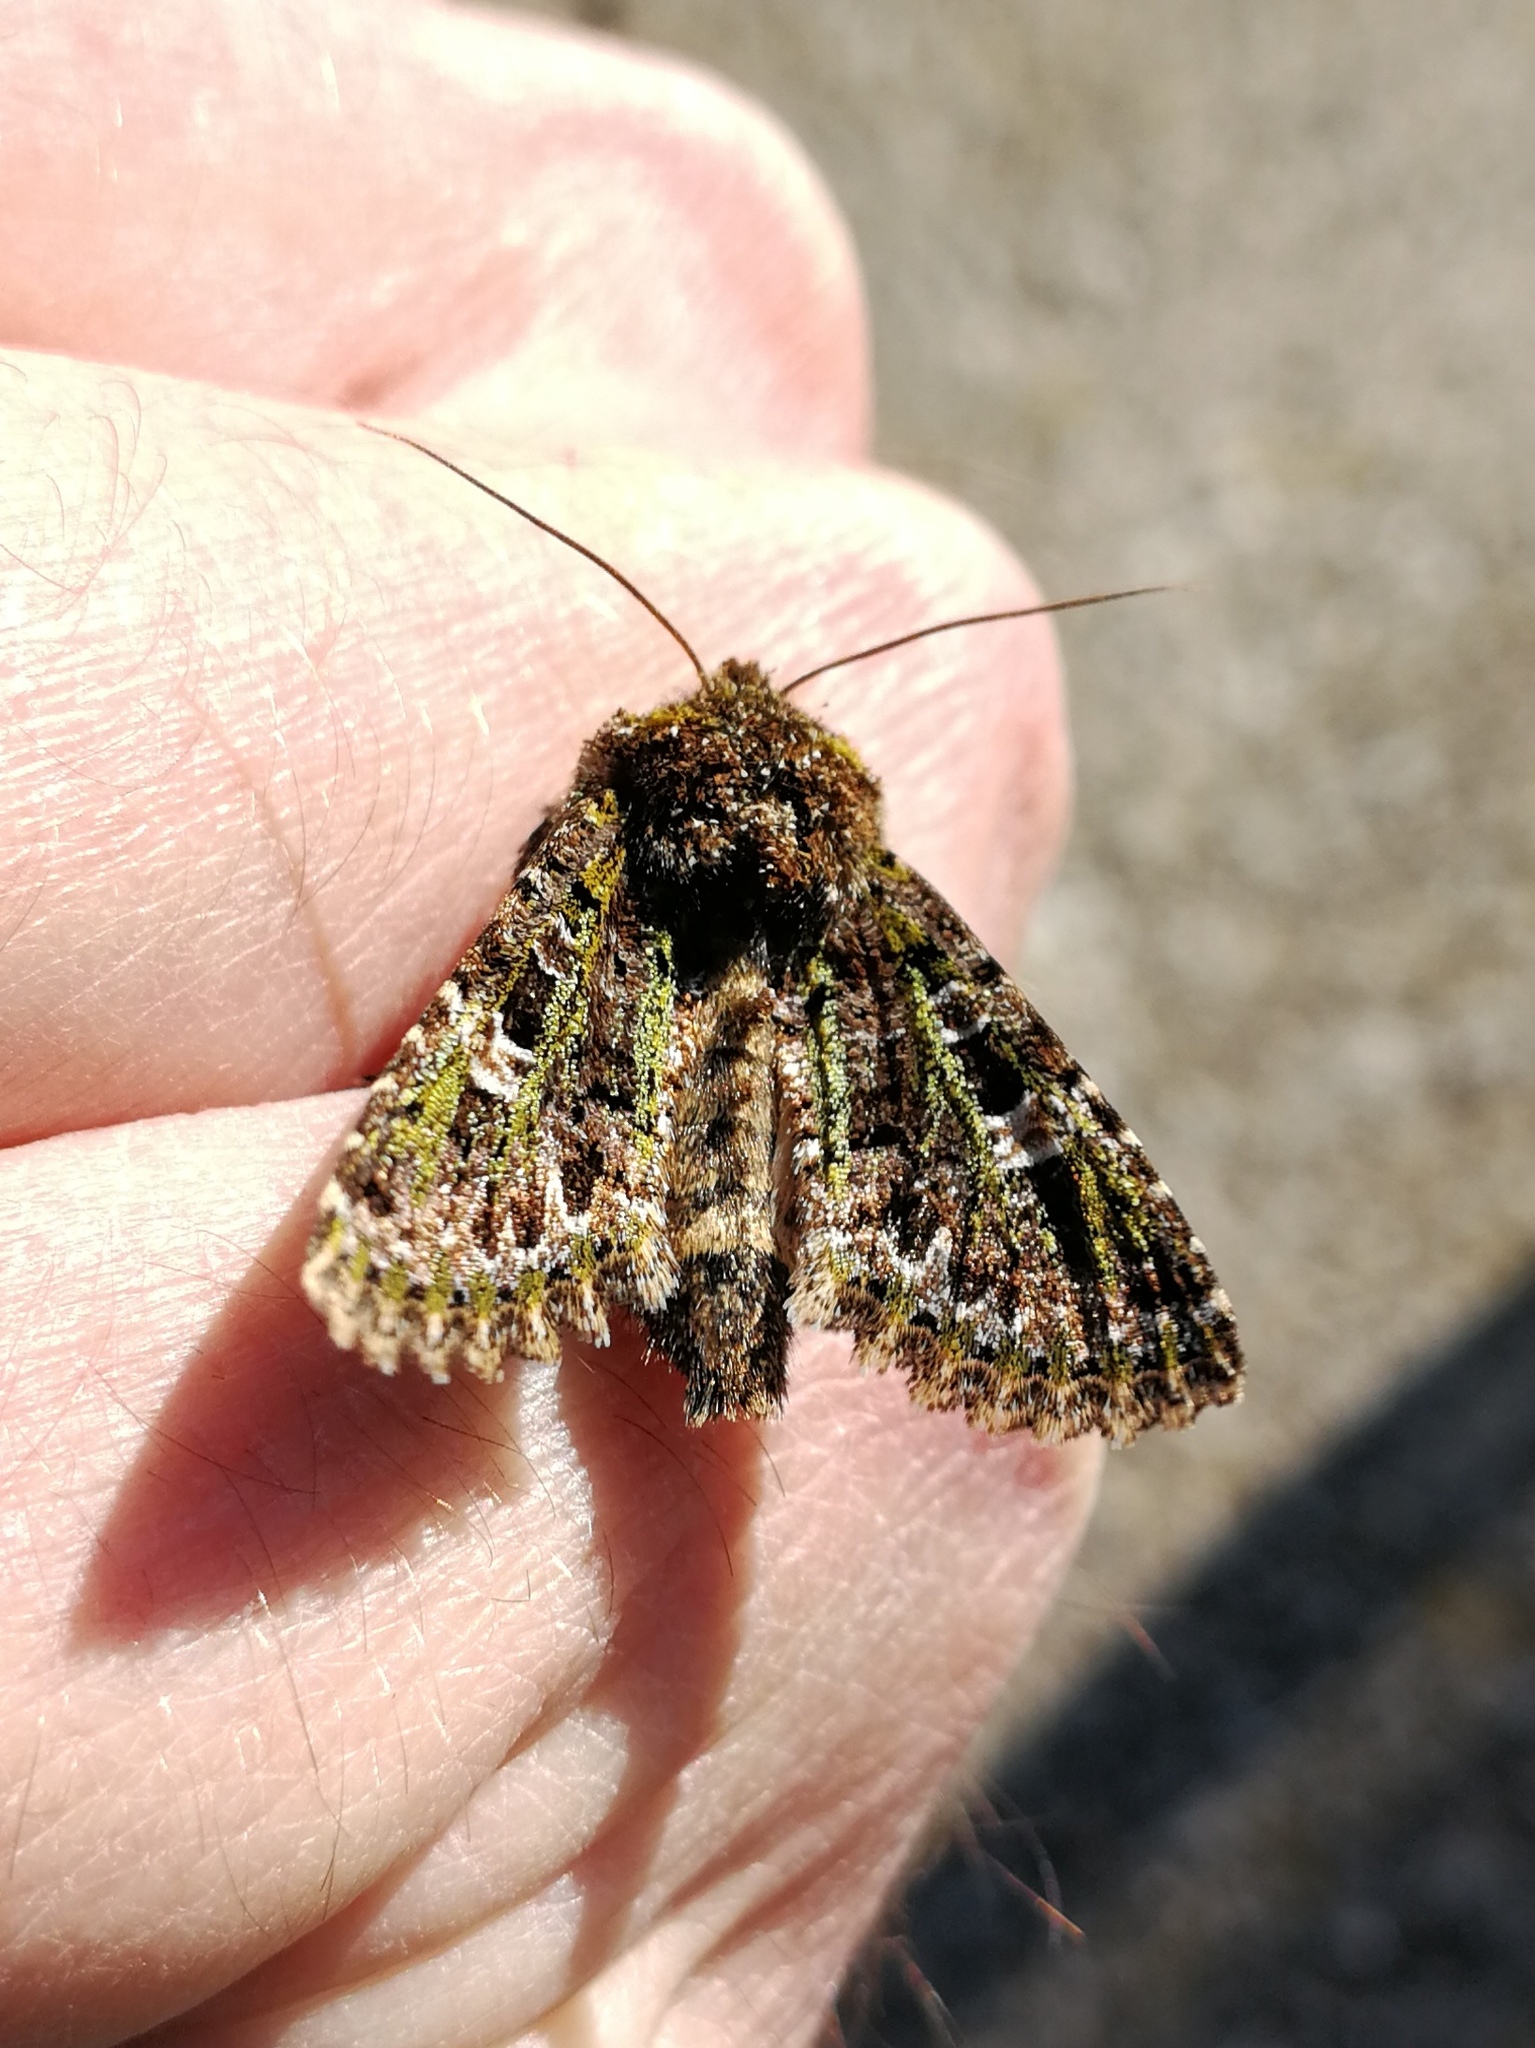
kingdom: Animalia
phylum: Arthropoda
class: Insecta
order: Lepidoptera
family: Noctuidae
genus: Valeria
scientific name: Valeria jaspidea
